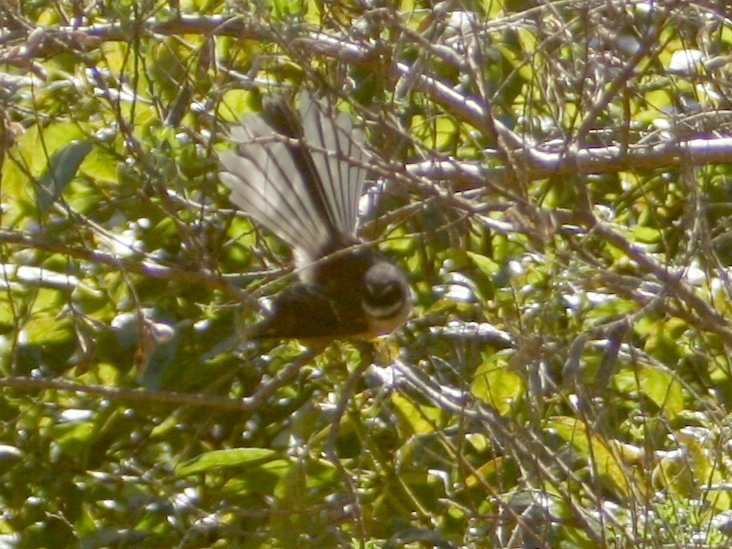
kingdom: Animalia
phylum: Chordata
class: Aves
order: Passeriformes
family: Rhipiduridae
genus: Rhipidura
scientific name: Rhipidura fuliginosa
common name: New zealand fantail
